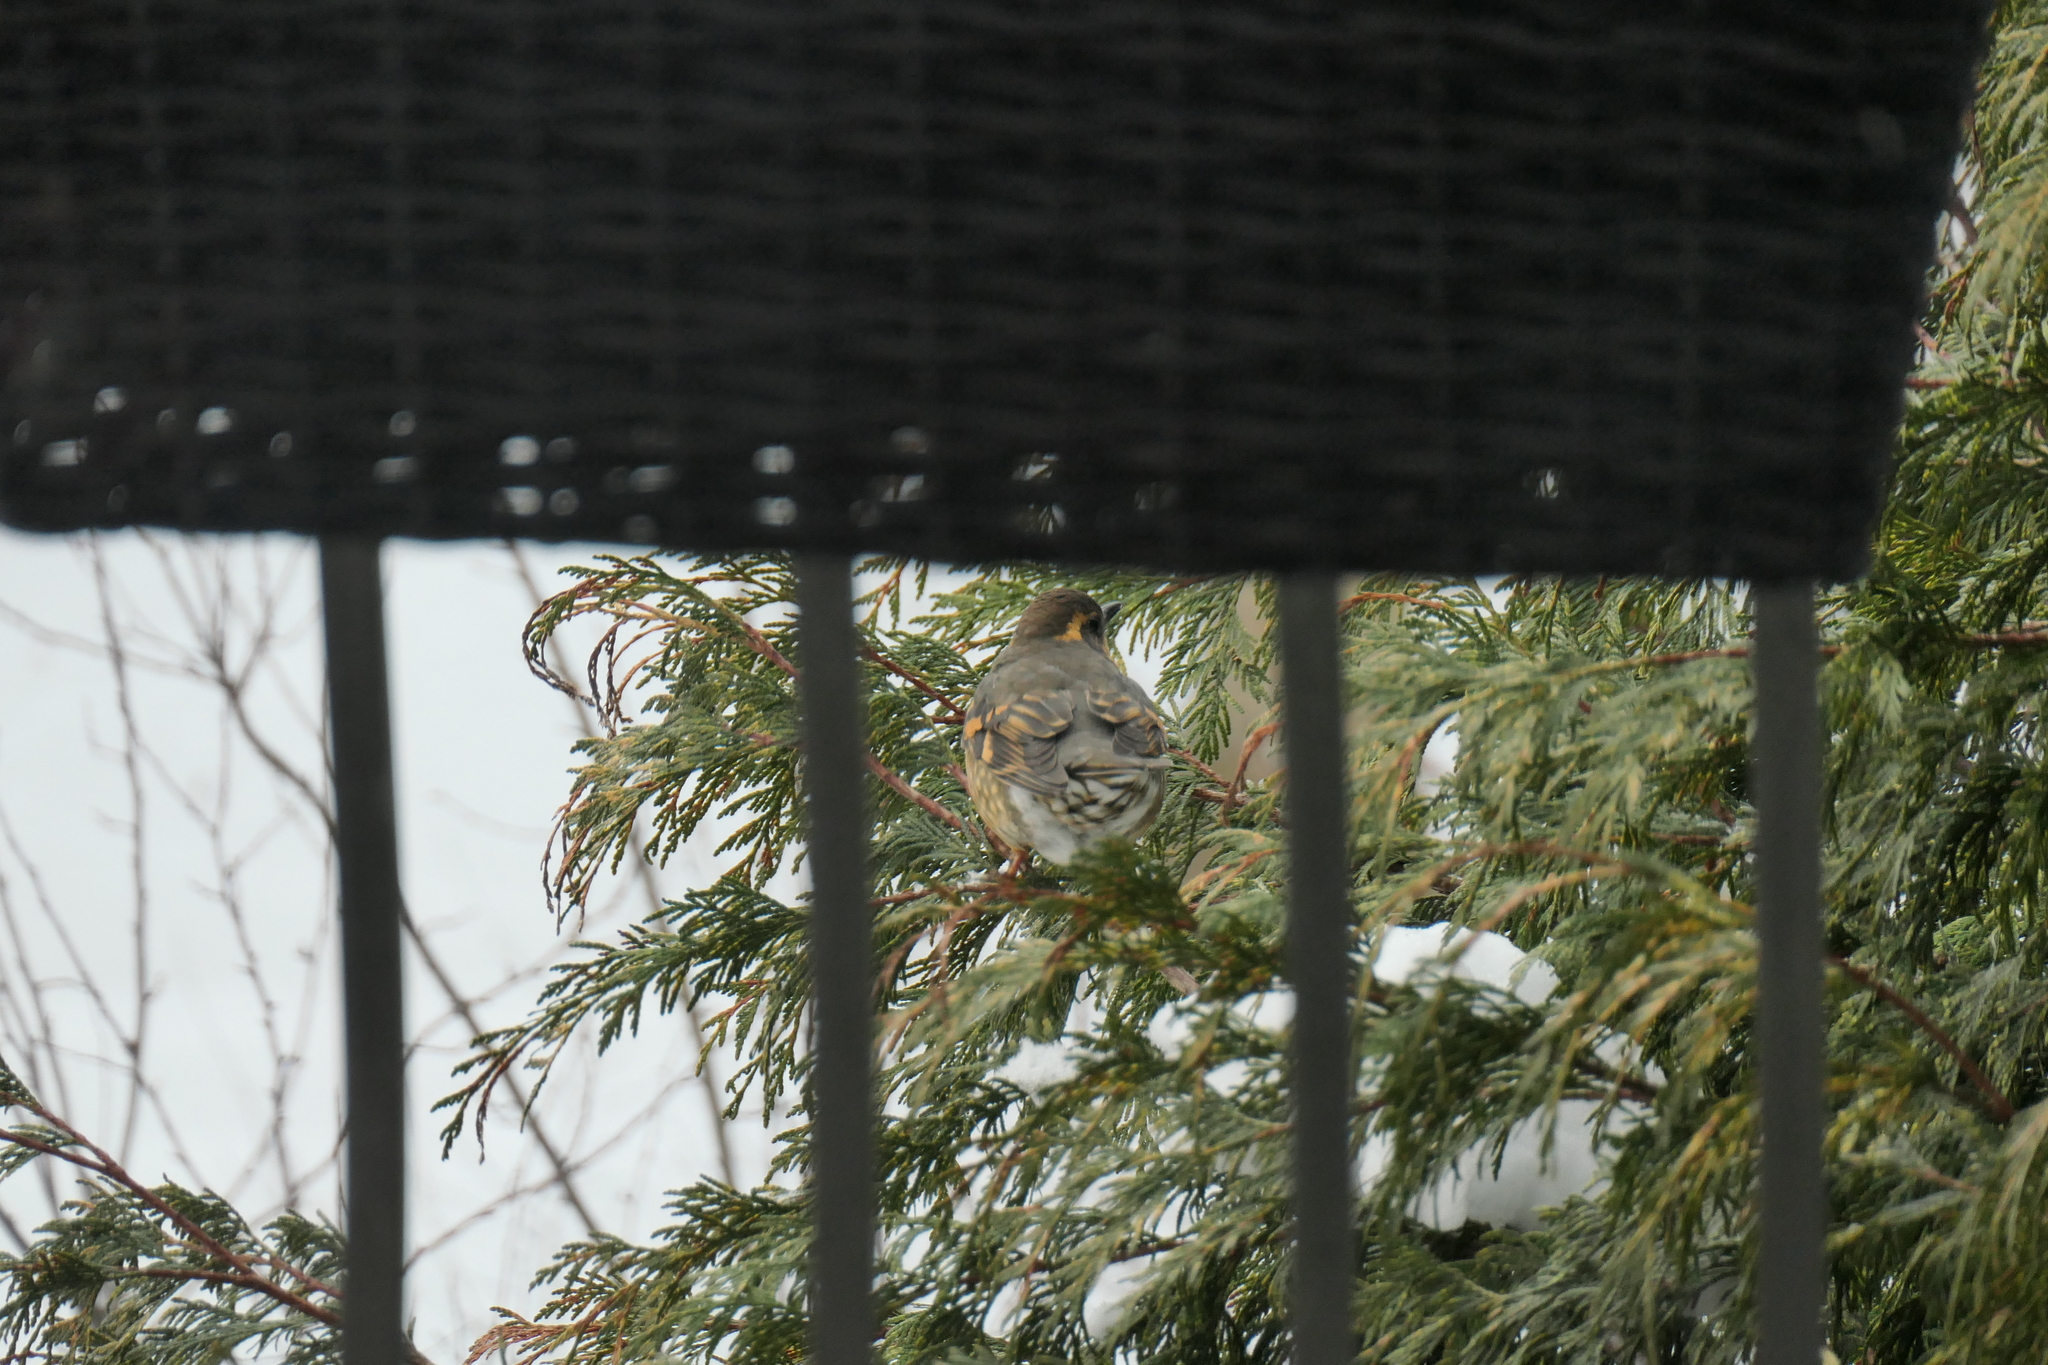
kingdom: Animalia
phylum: Chordata
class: Aves
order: Passeriformes
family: Turdidae
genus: Ixoreus
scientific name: Ixoreus naevius
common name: Varied thrush
